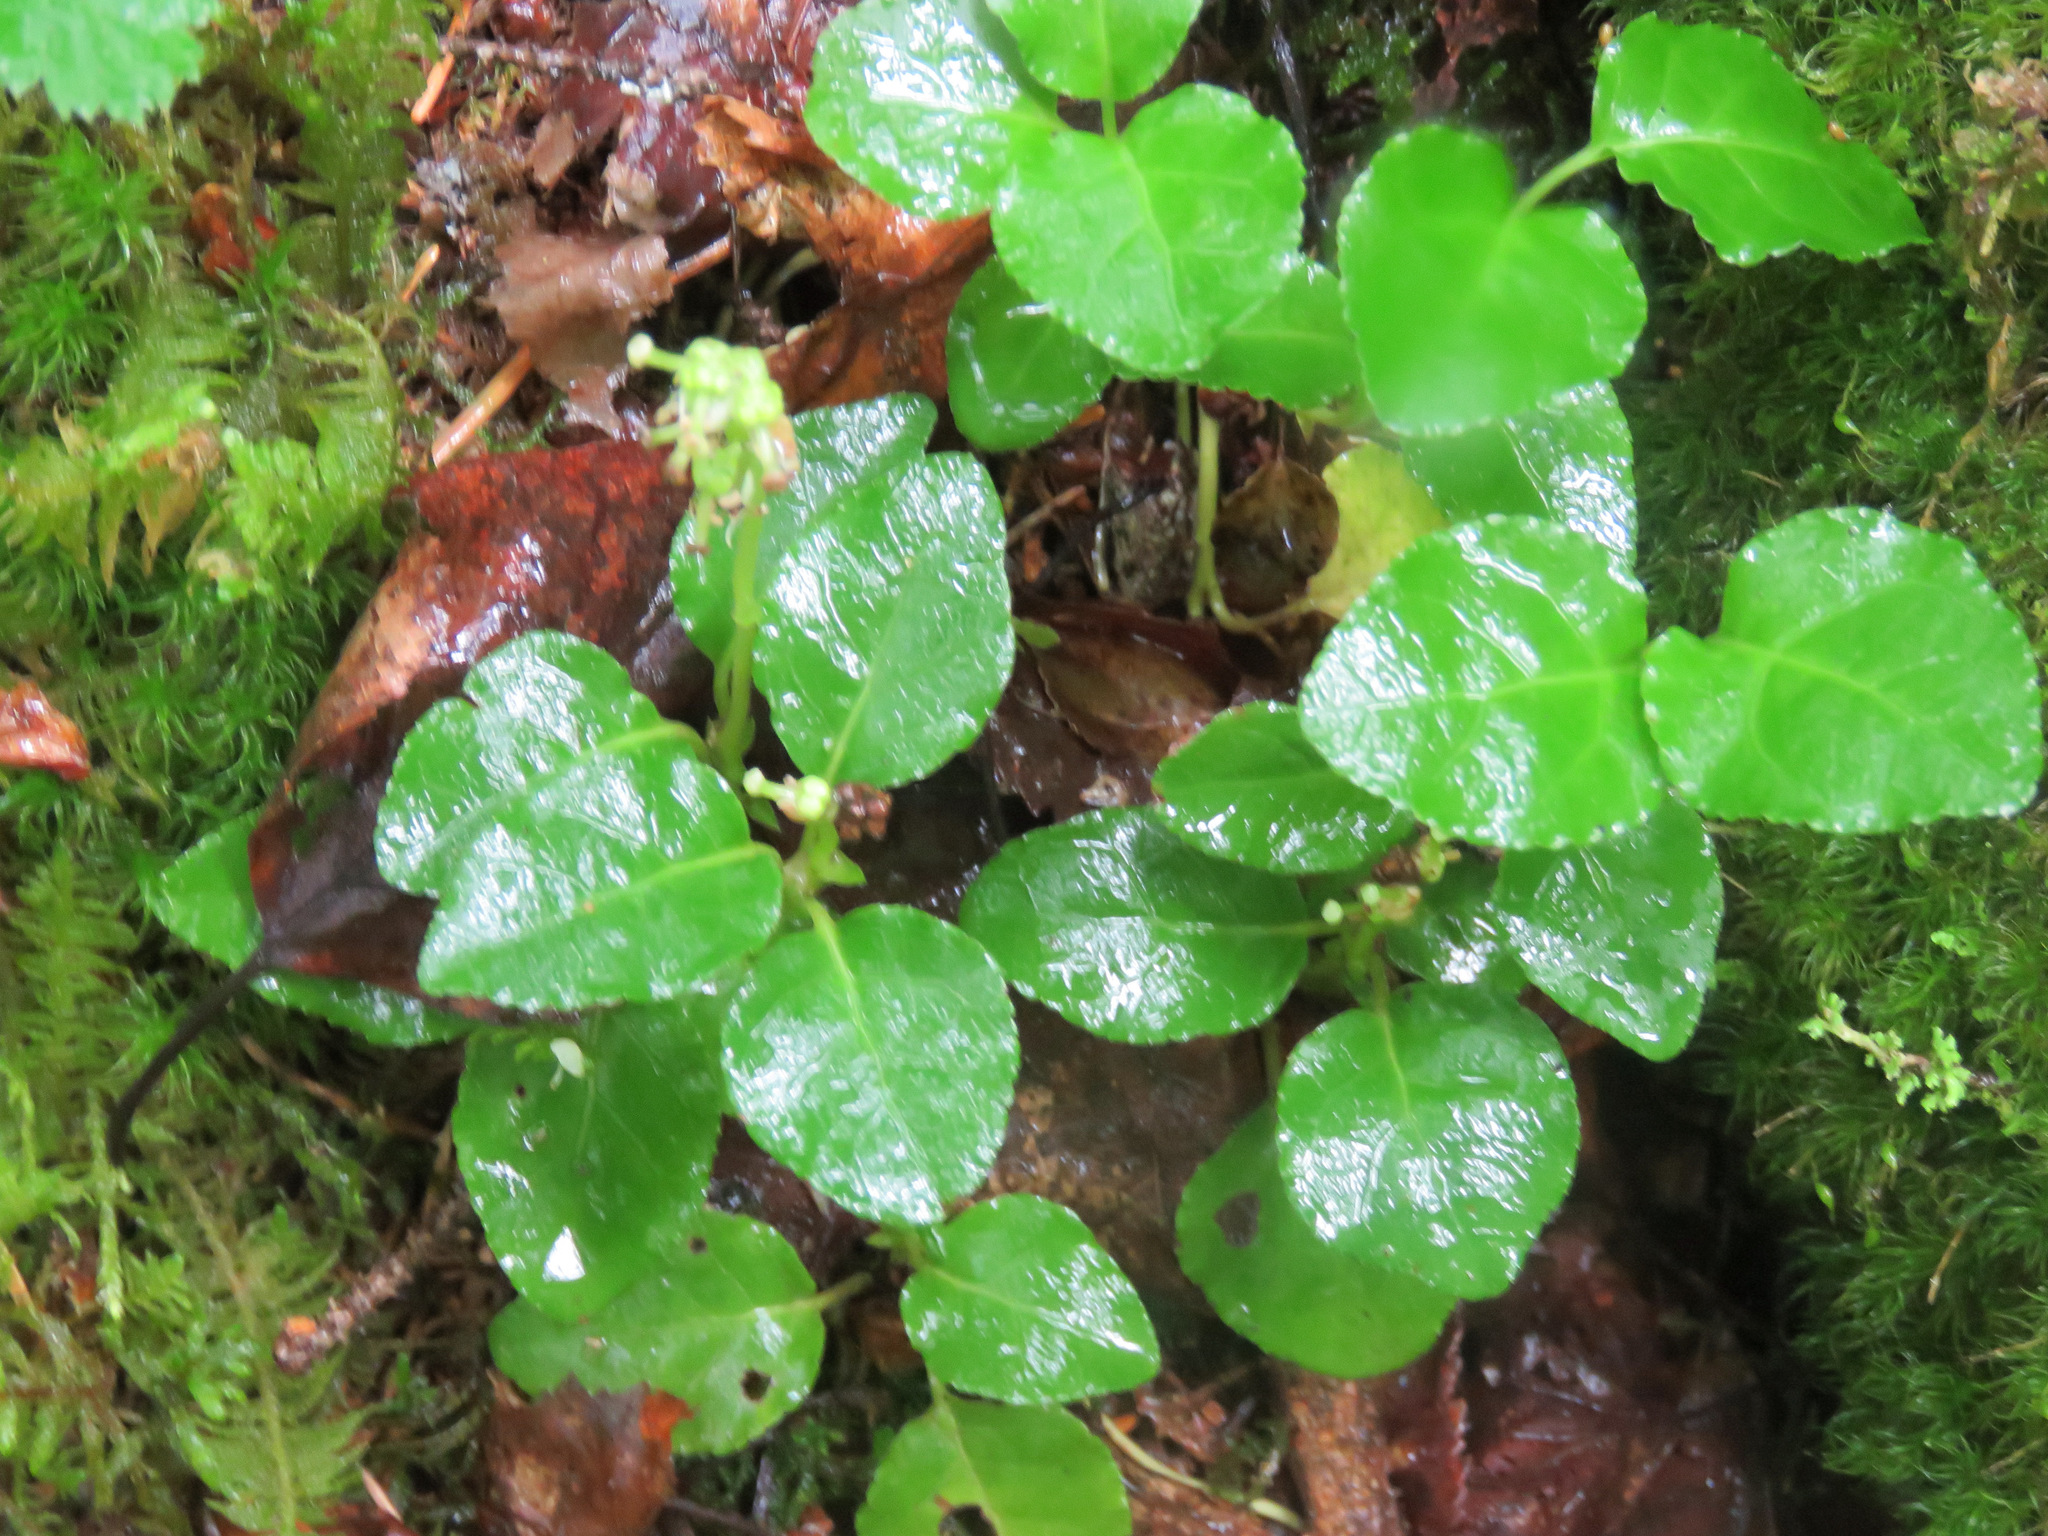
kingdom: Plantae
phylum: Tracheophyta
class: Magnoliopsida
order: Ericales
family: Ericaceae
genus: Orthilia
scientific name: Orthilia secunda
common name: One-sided orthilia
